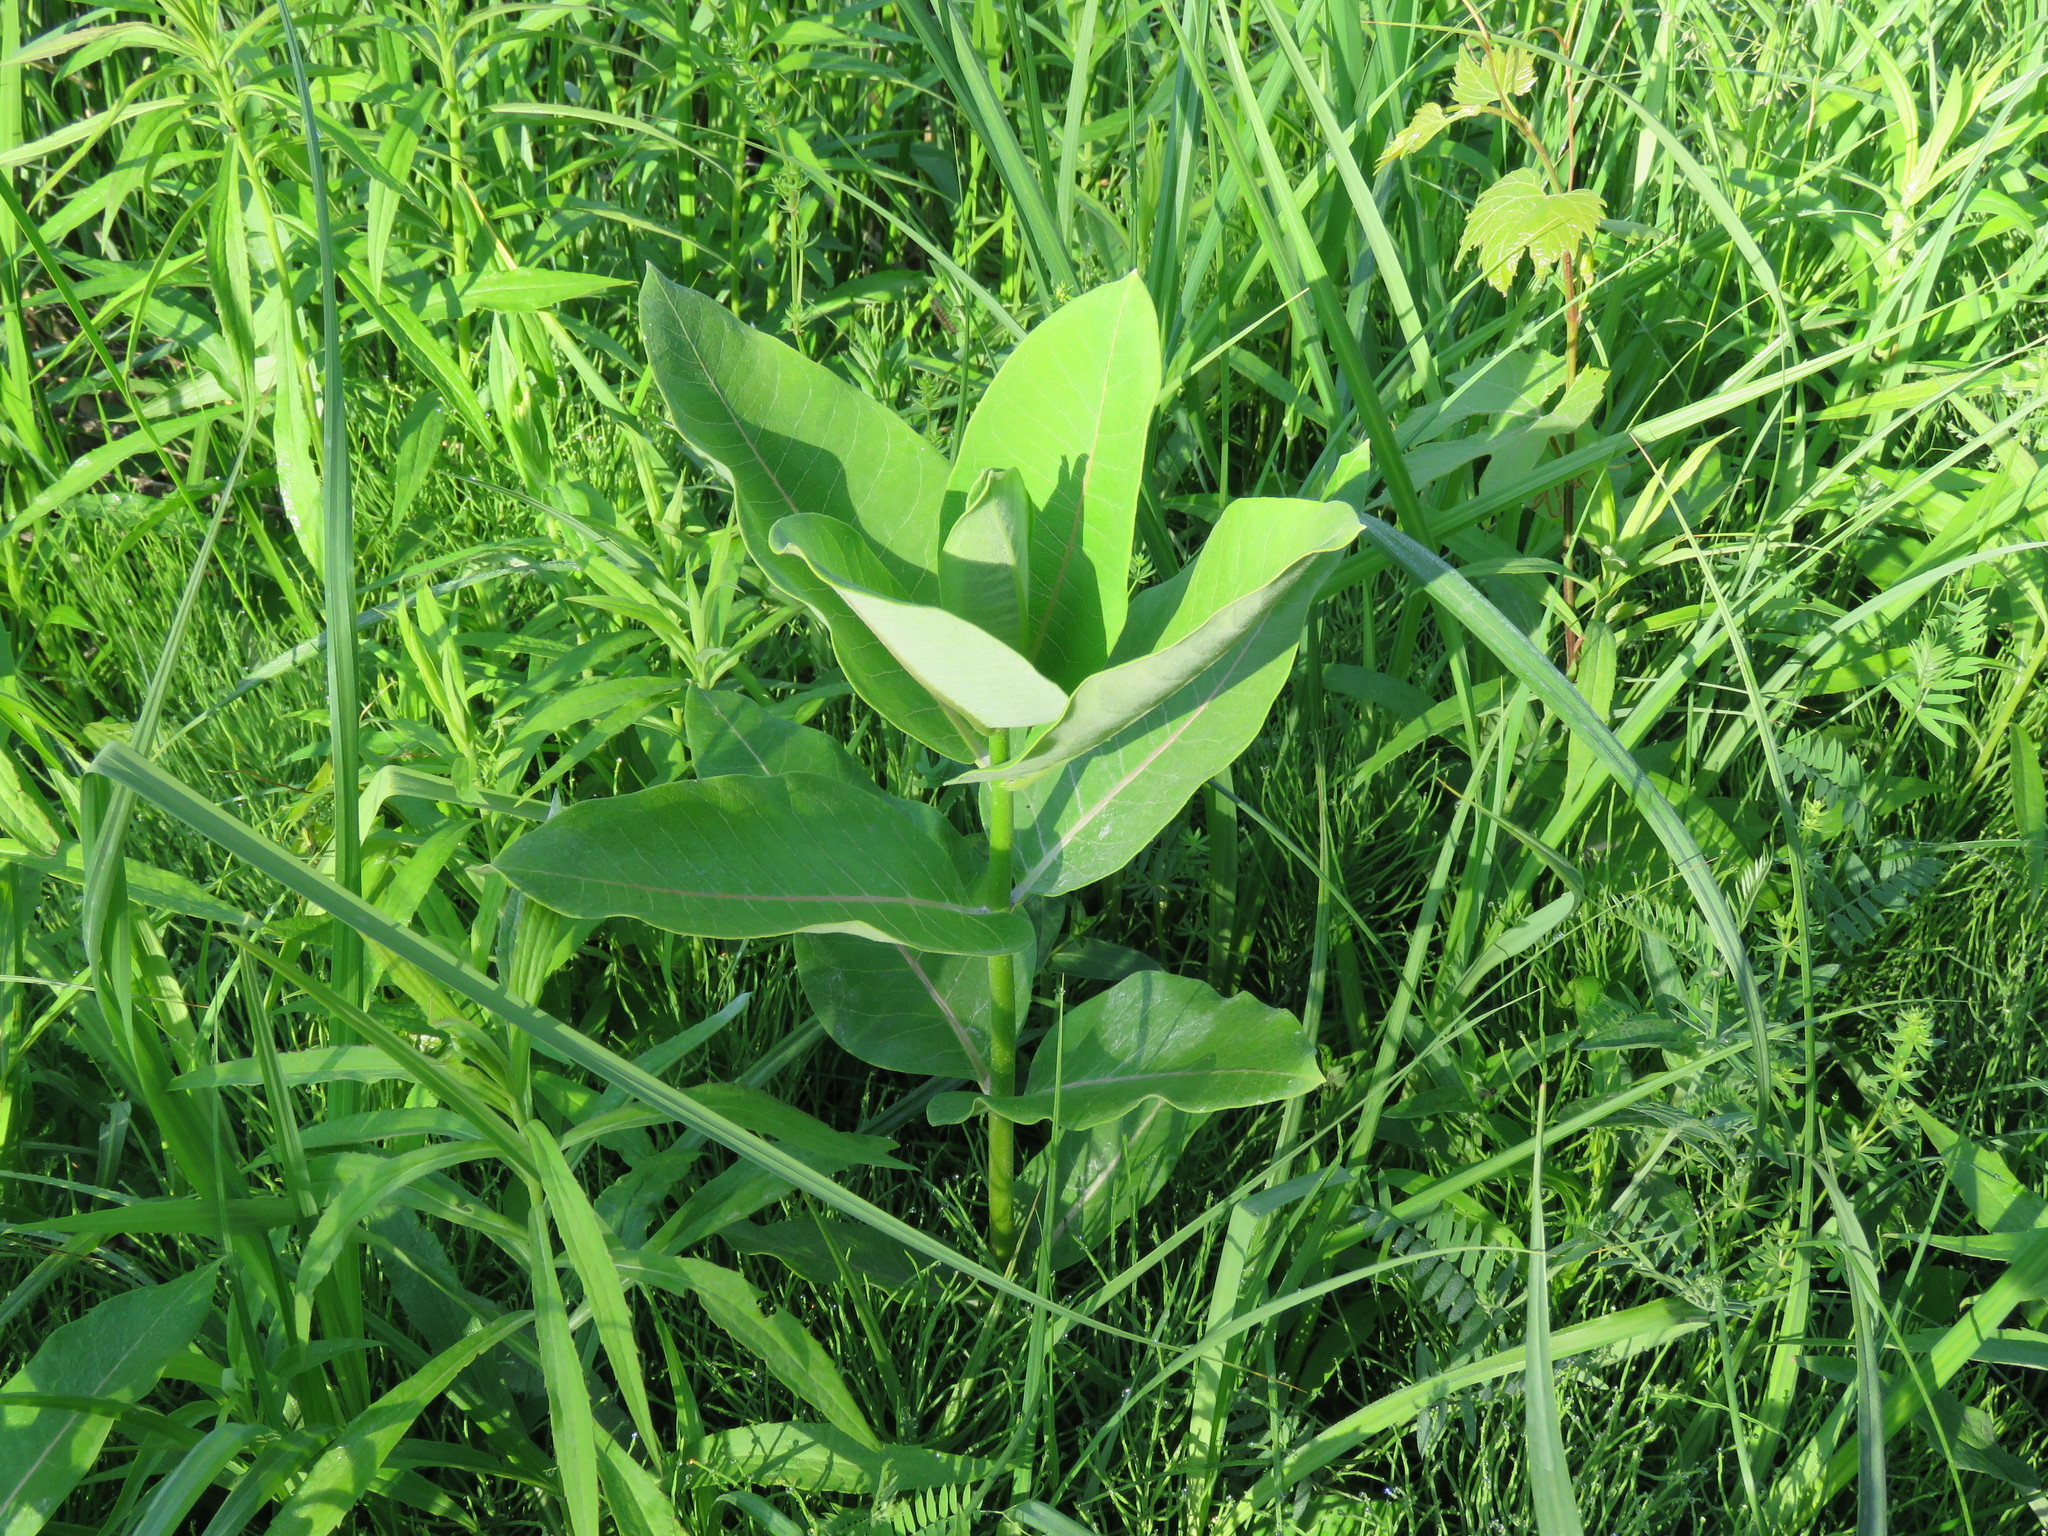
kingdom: Plantae
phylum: Tracheophyta
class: Magnoliopsida
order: Gentianales
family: Apocynaceae
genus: Asclepias
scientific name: Asclepias syriaca
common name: Common milkweed
